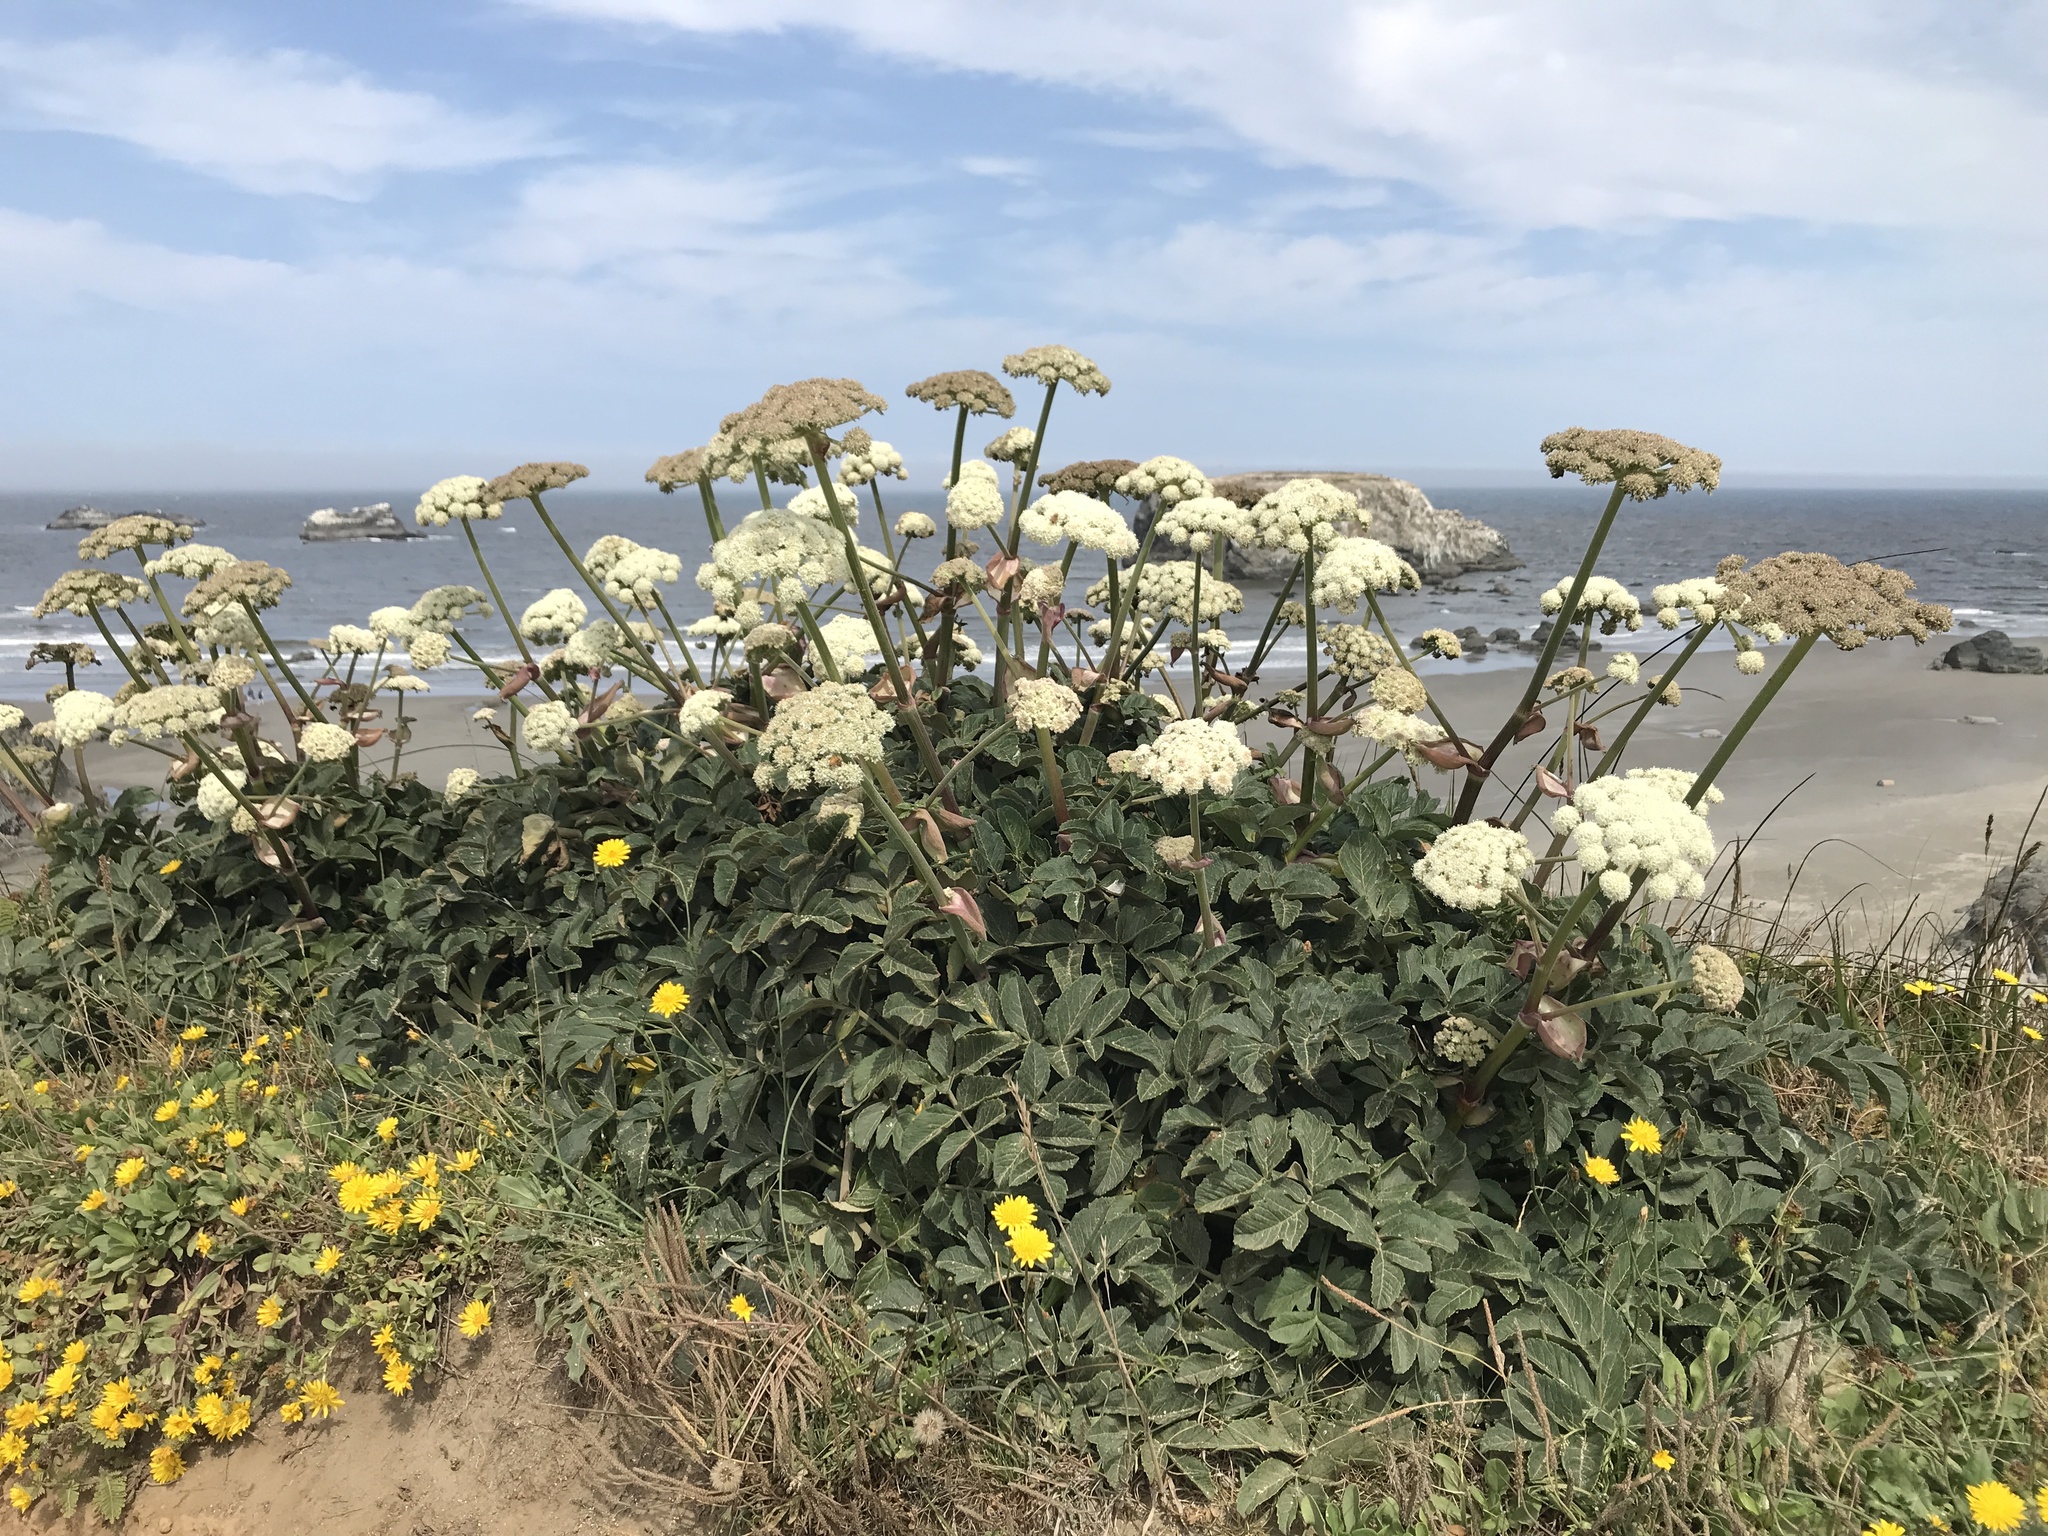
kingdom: Plantae
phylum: Tracheophyta
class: Magnoliopsida
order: Apiales
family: Apiaceae
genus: Angelica
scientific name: Angelica hendersonii
